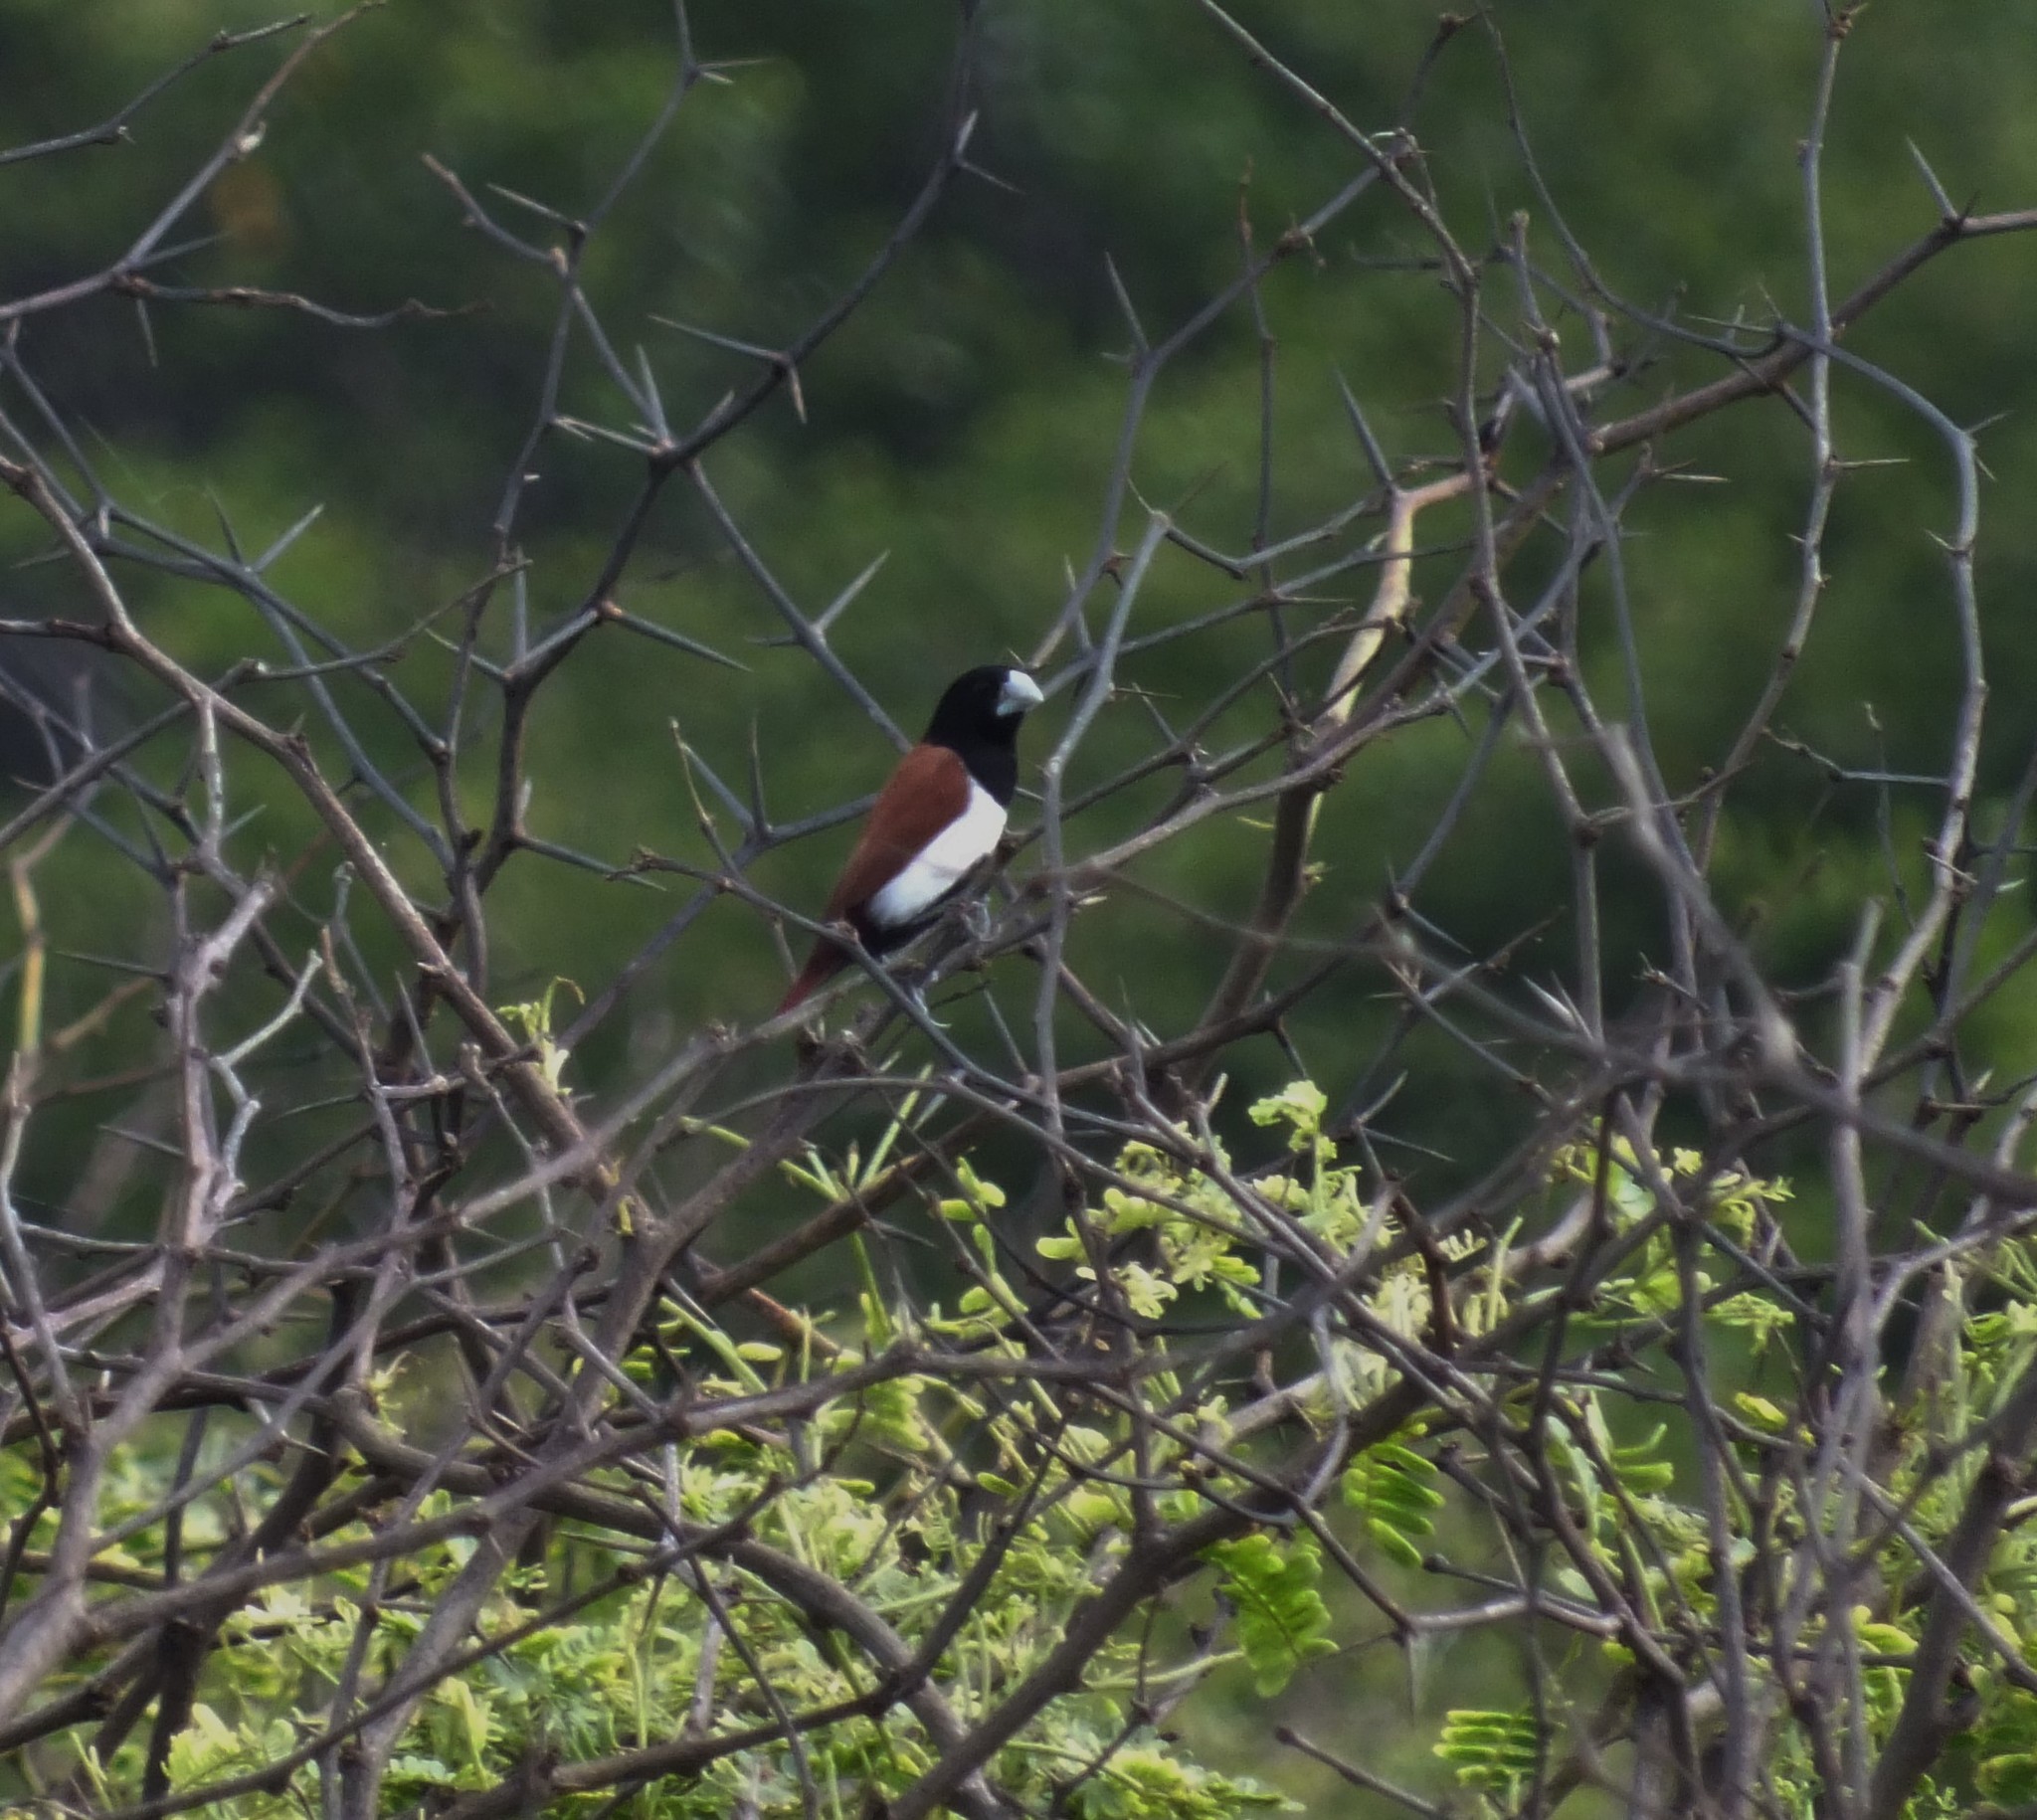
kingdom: Animalia
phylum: Chordata
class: Aves
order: Passeriformes
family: Estrildidae
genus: Lonchura
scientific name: Lonchura malacca
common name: Tricolored munia
